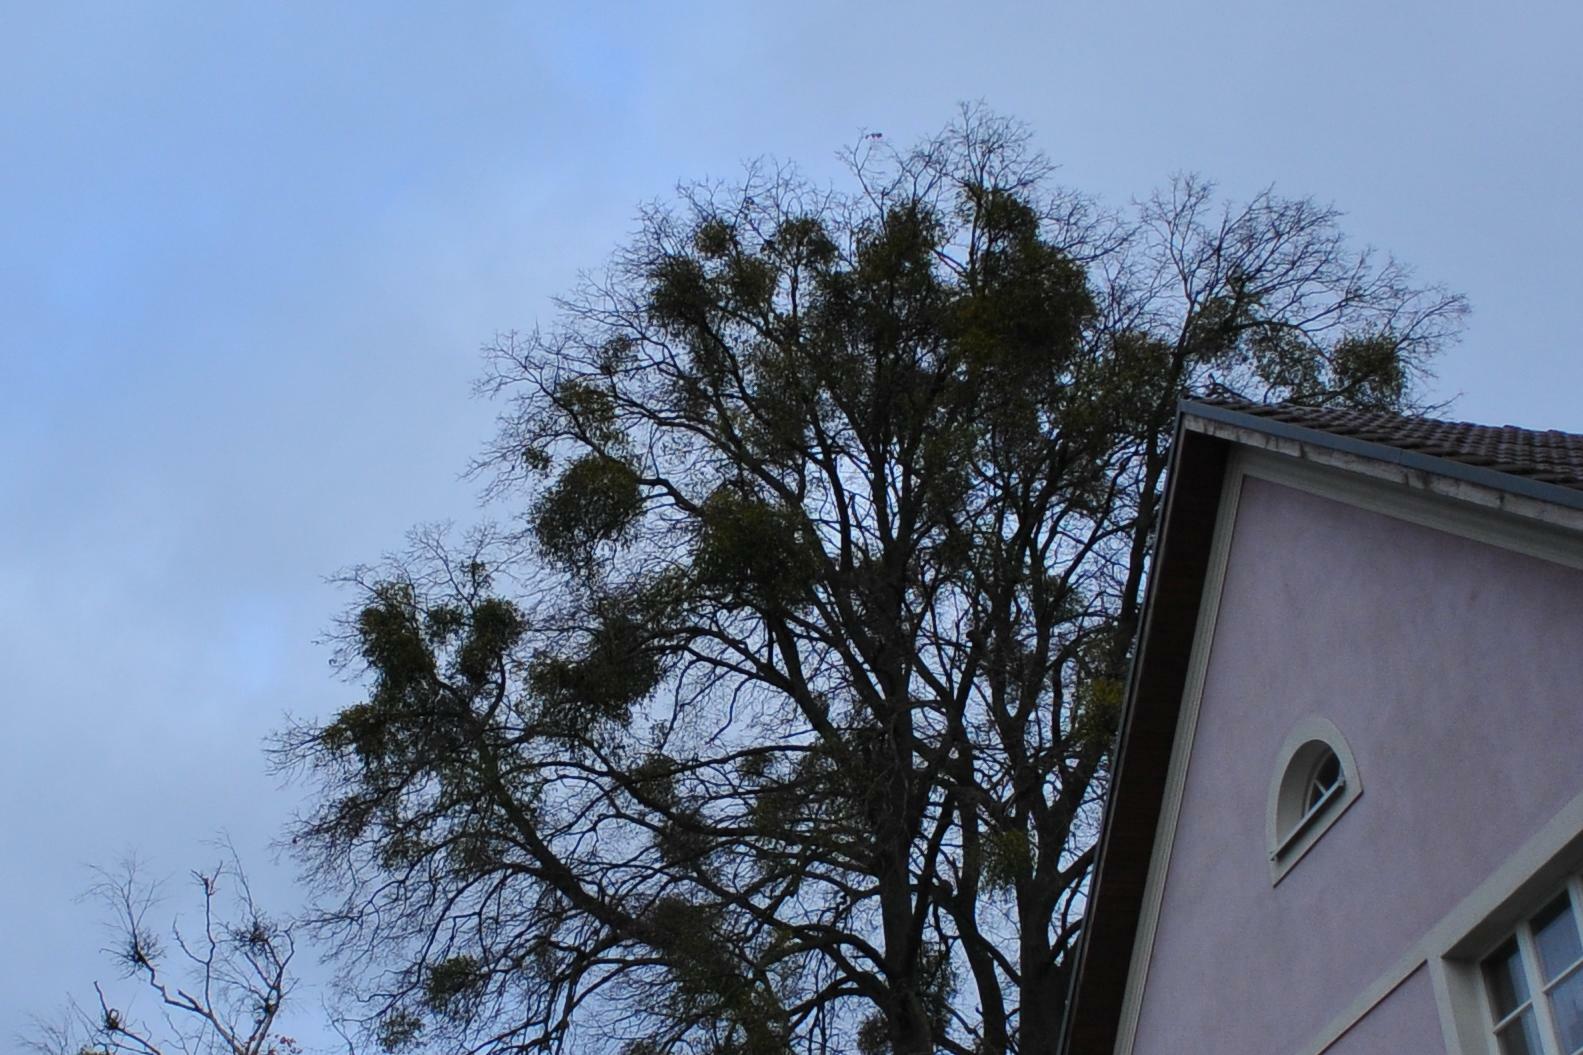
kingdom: Plantae
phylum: Tracheophyta
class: Magnoliopsida
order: Santalales
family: Viscaceae
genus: Viscum
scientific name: Viscum album
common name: Mistletoe
